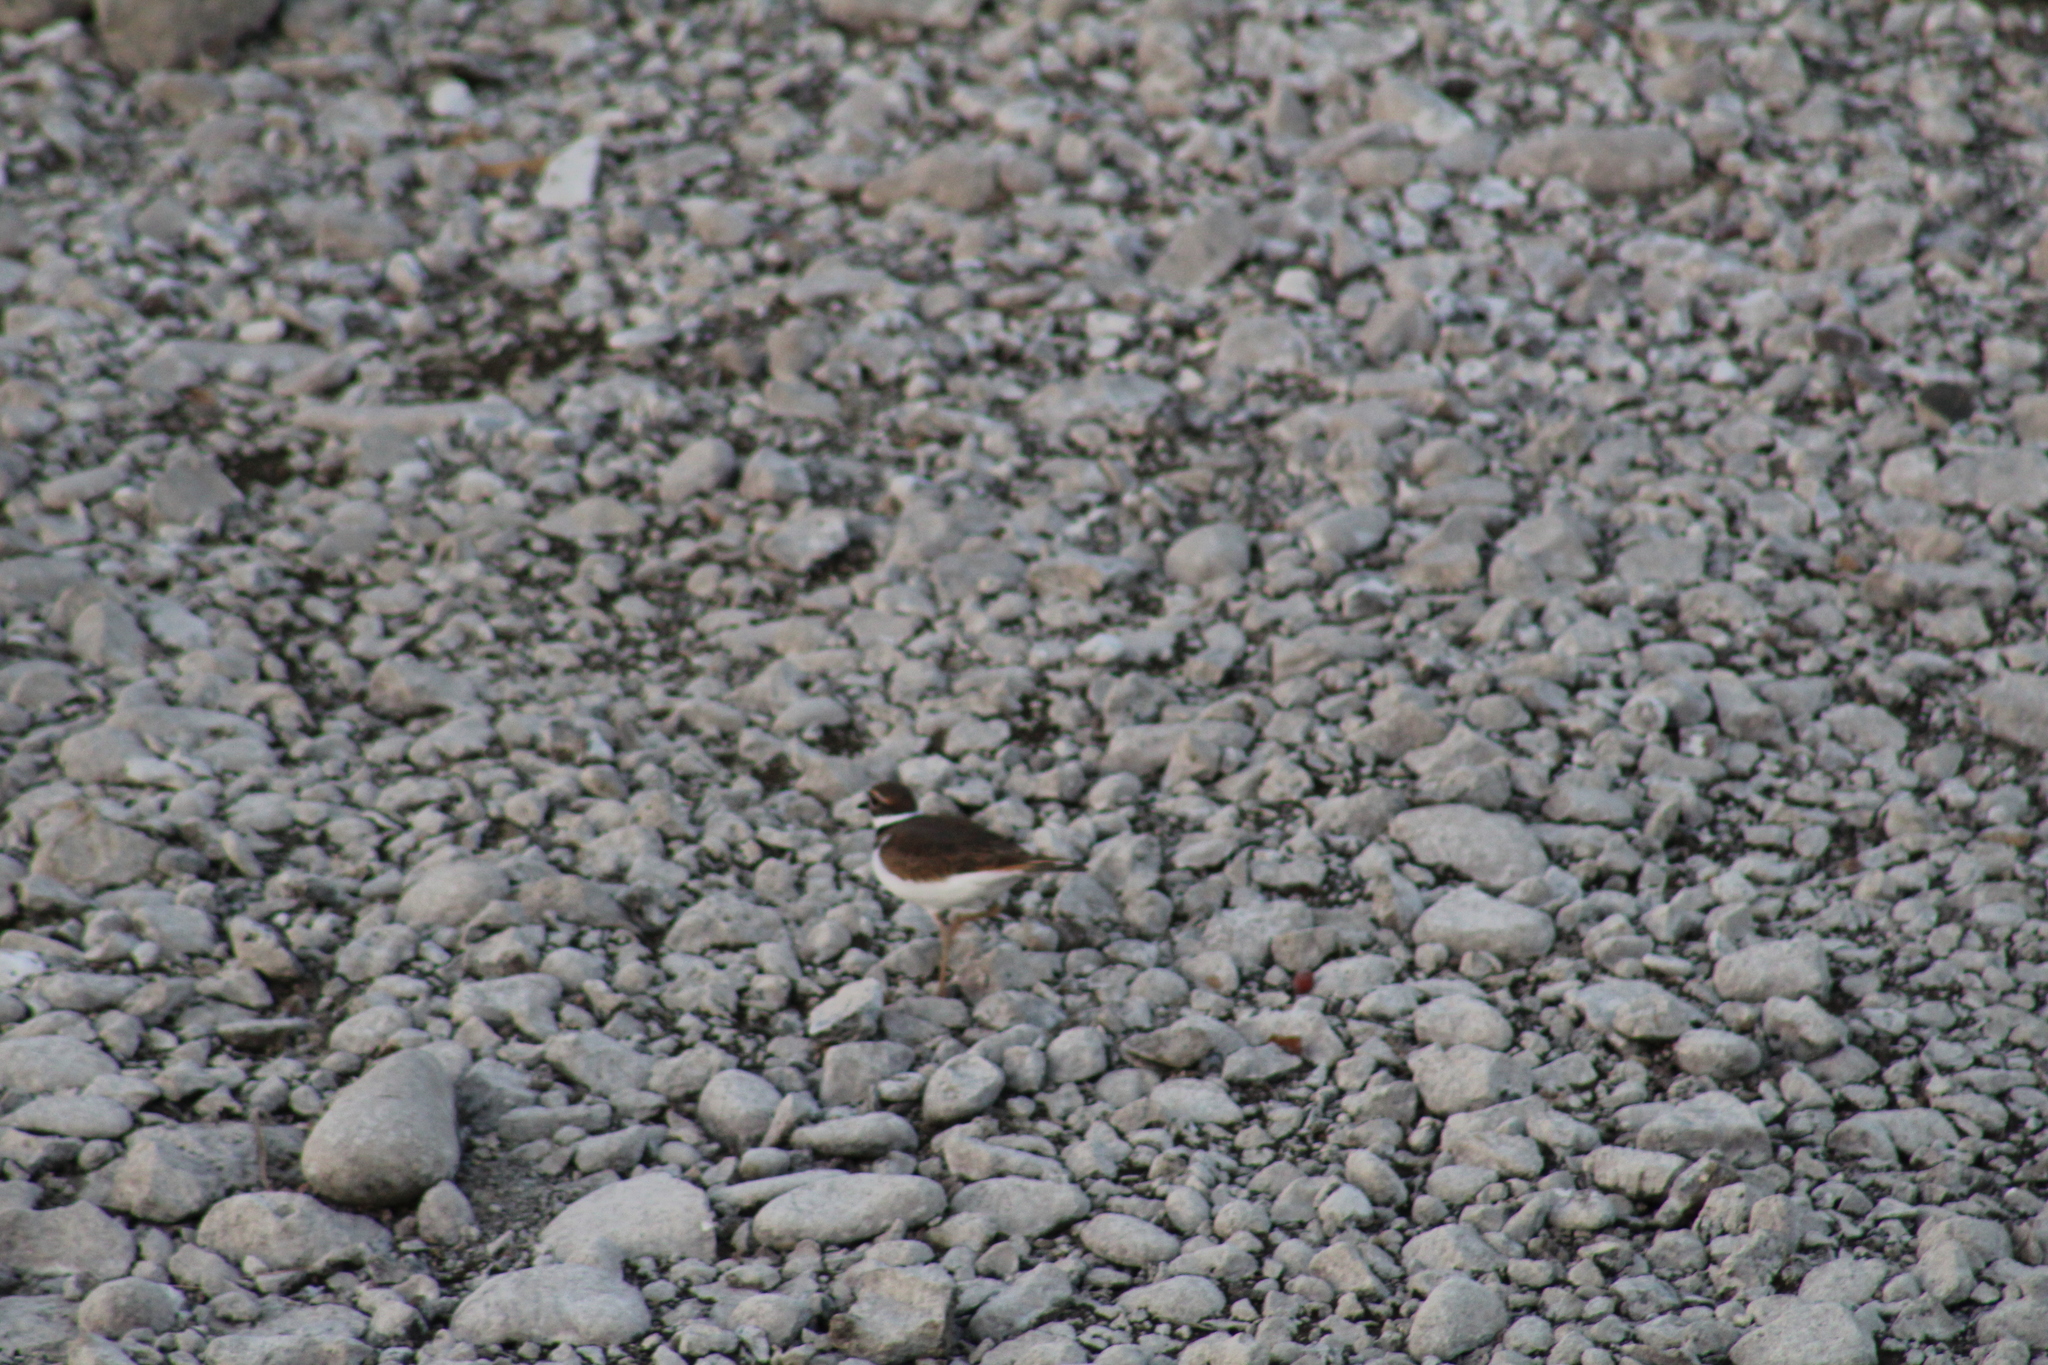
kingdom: Animalia
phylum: Chordata
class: Aves
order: Charadriiformes
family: Charadriidae
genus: Charadrius
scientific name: Charadrius vociferus
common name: Killdeer
